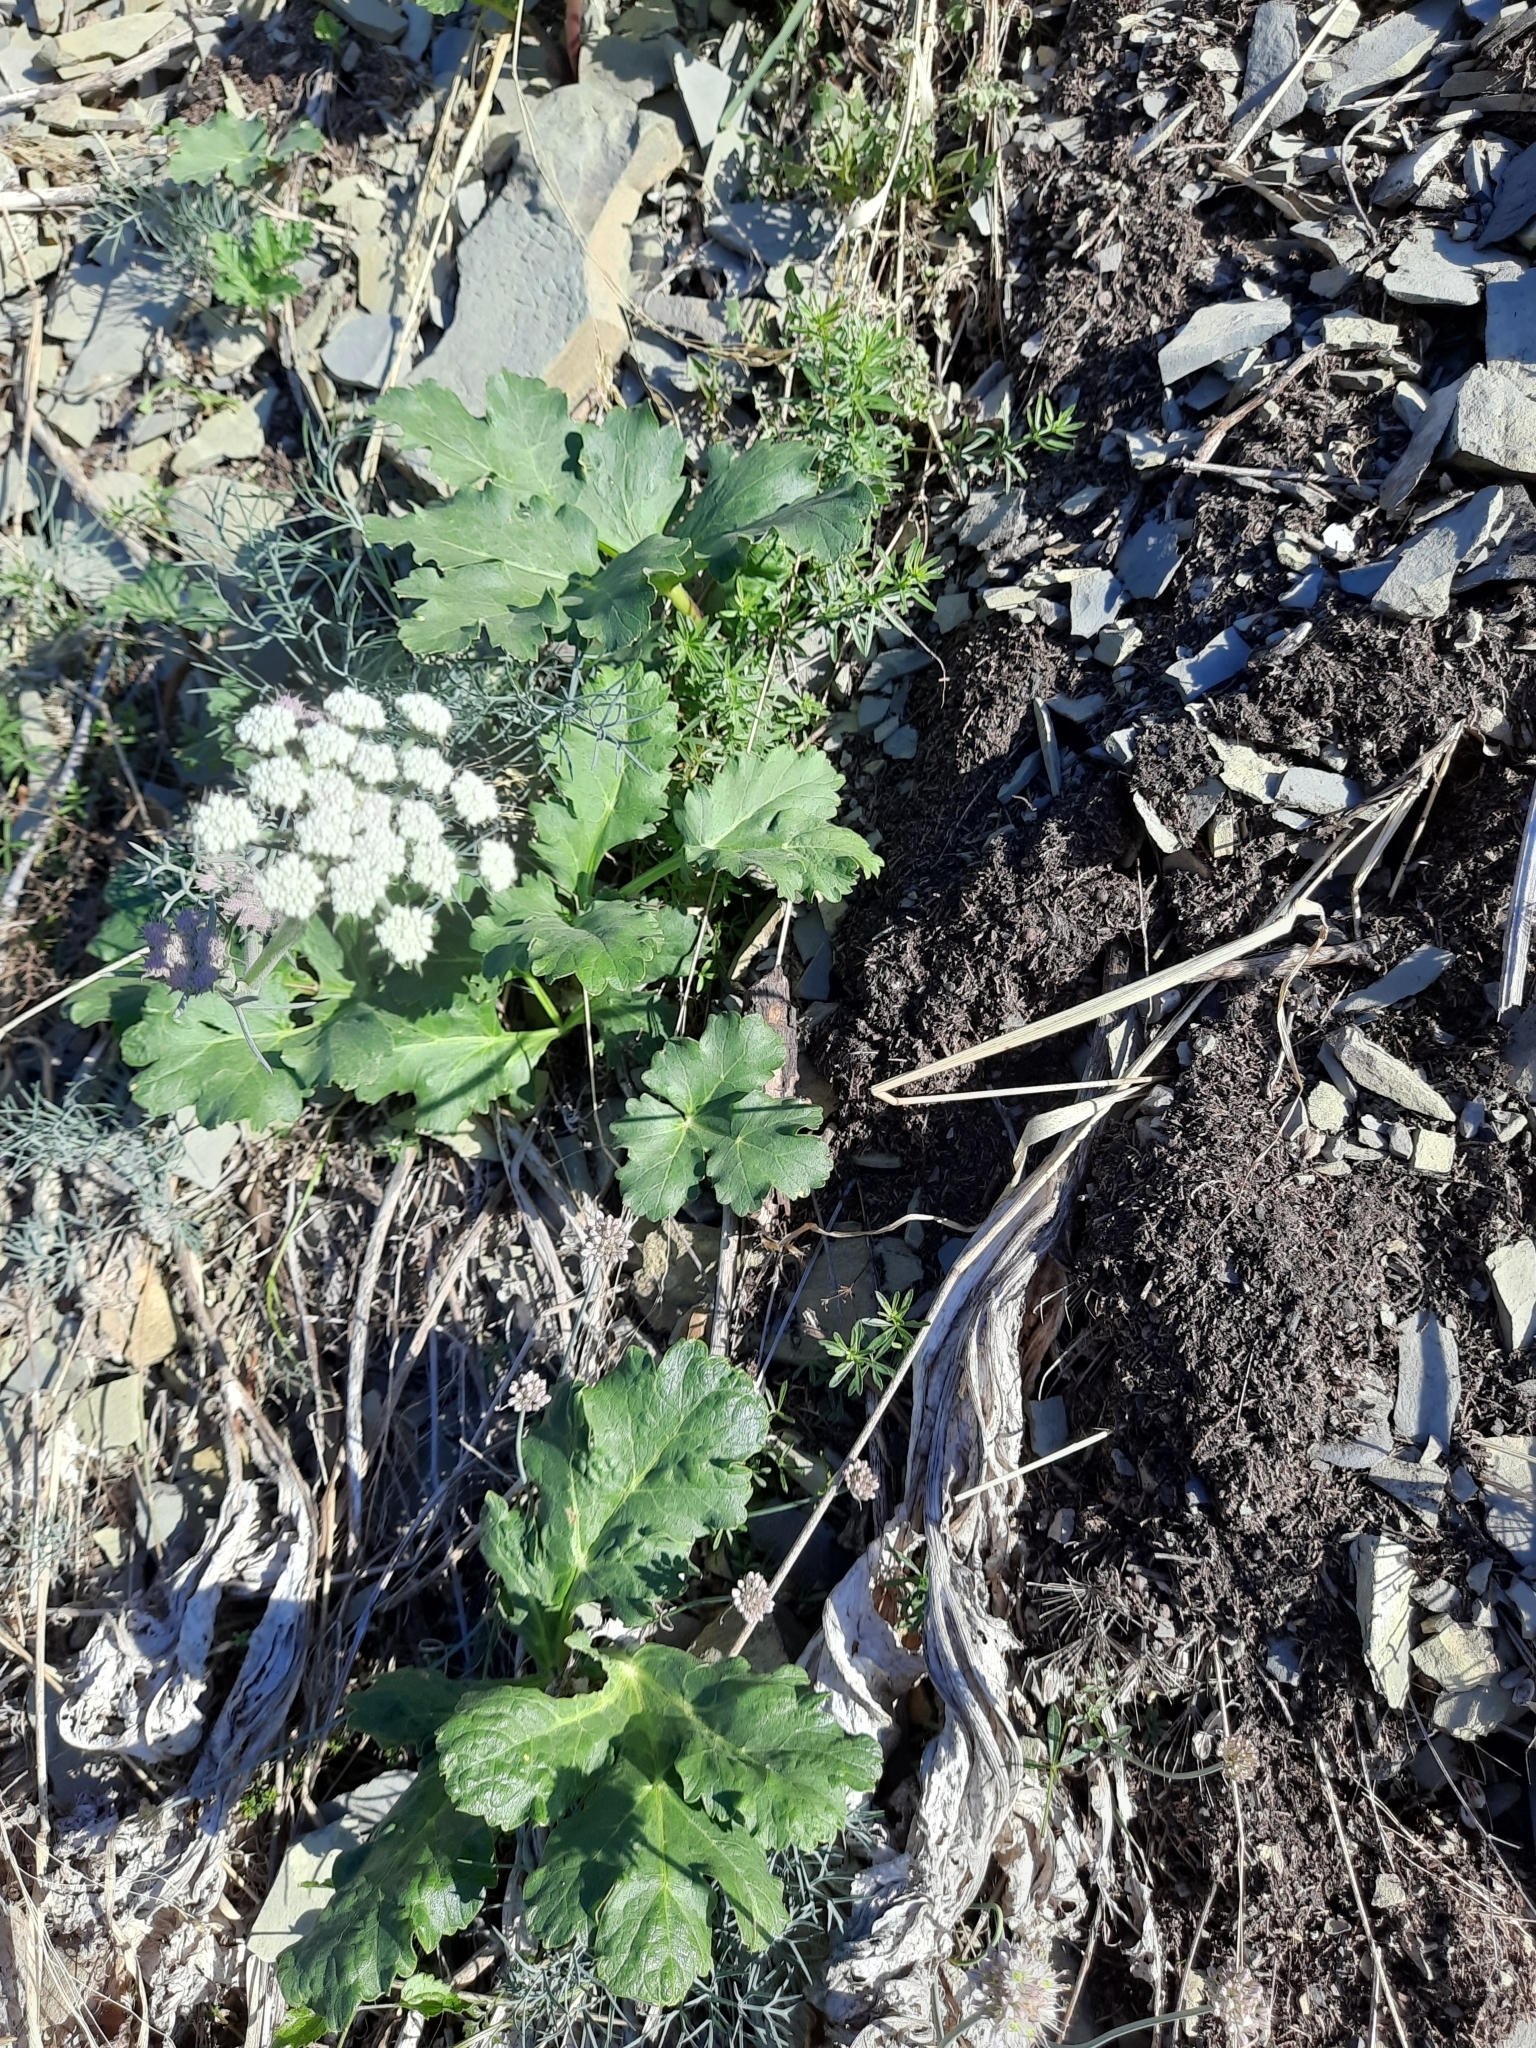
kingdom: Plantae
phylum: Tracheophyta
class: Magnoliopsida
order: Apiales
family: Apiaceae
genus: Heracleum
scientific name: Heracleum stevenii
